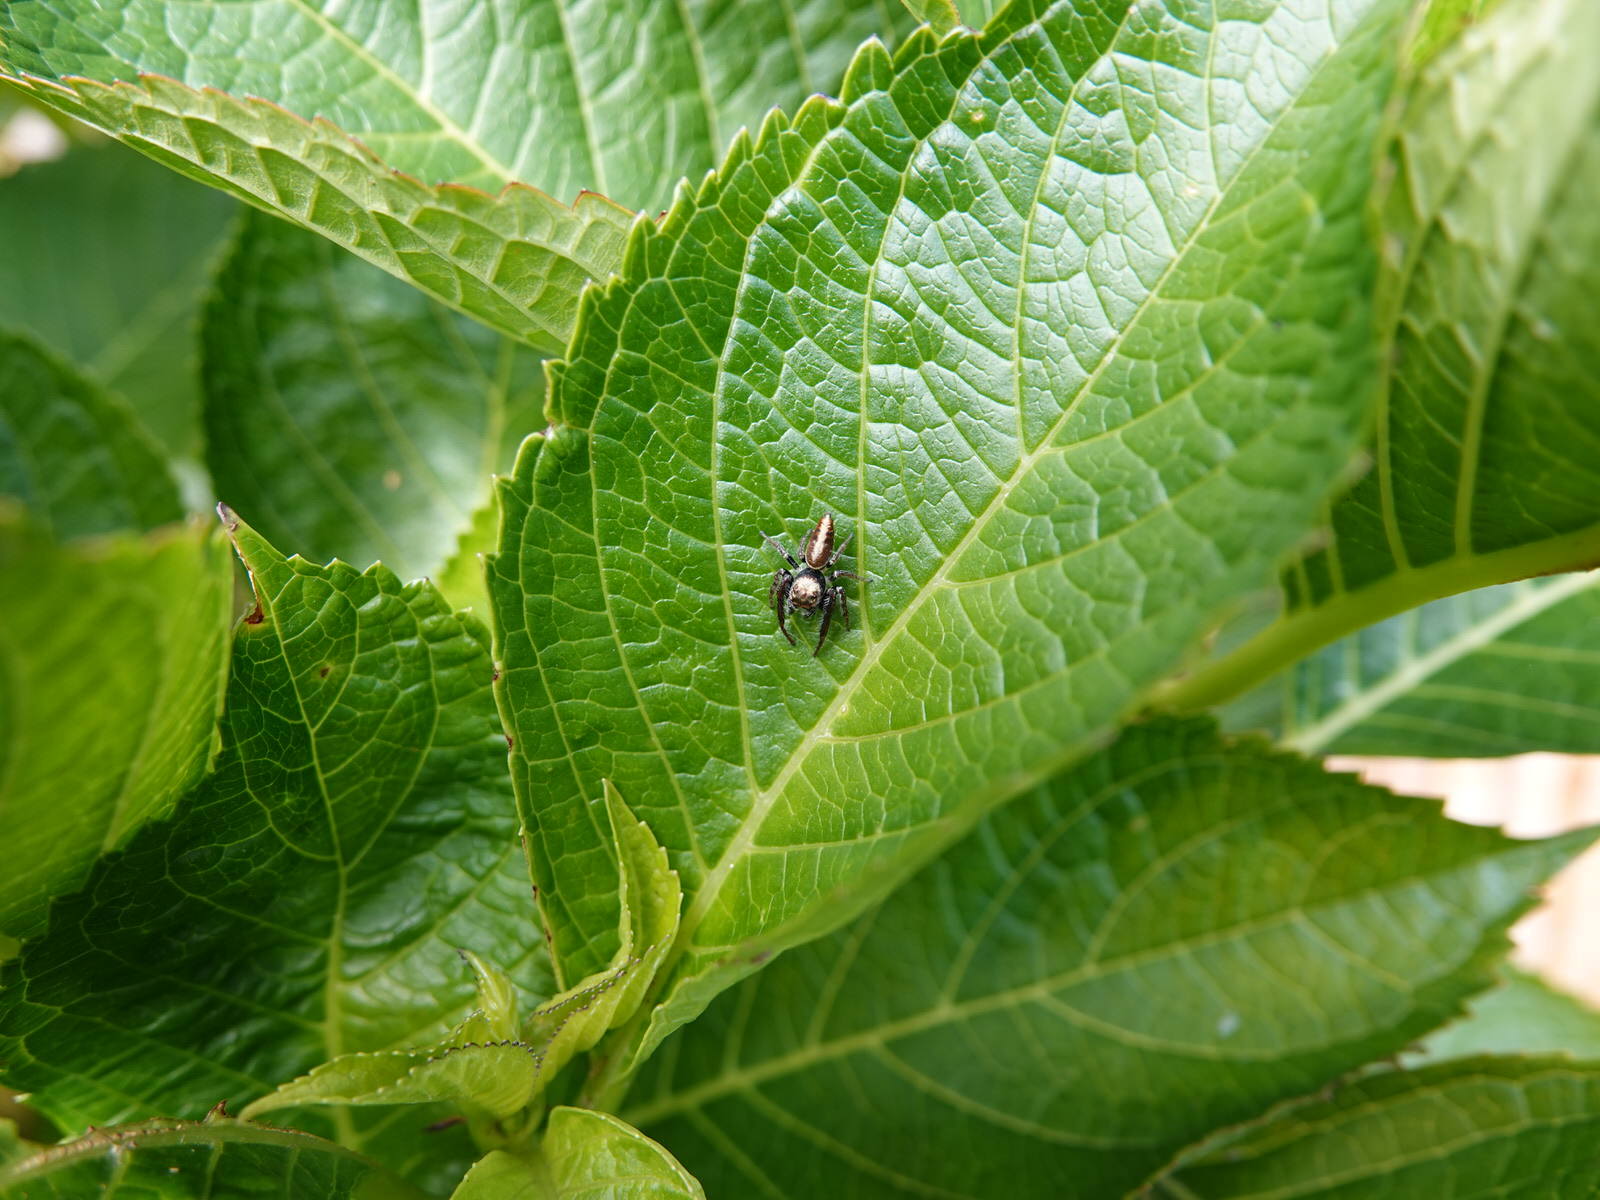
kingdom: Animalia
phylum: Arthropoda
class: Arachnida
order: Araneae
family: Salticidae
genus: Opisthoncus
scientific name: Opisthoncus polyphemus
